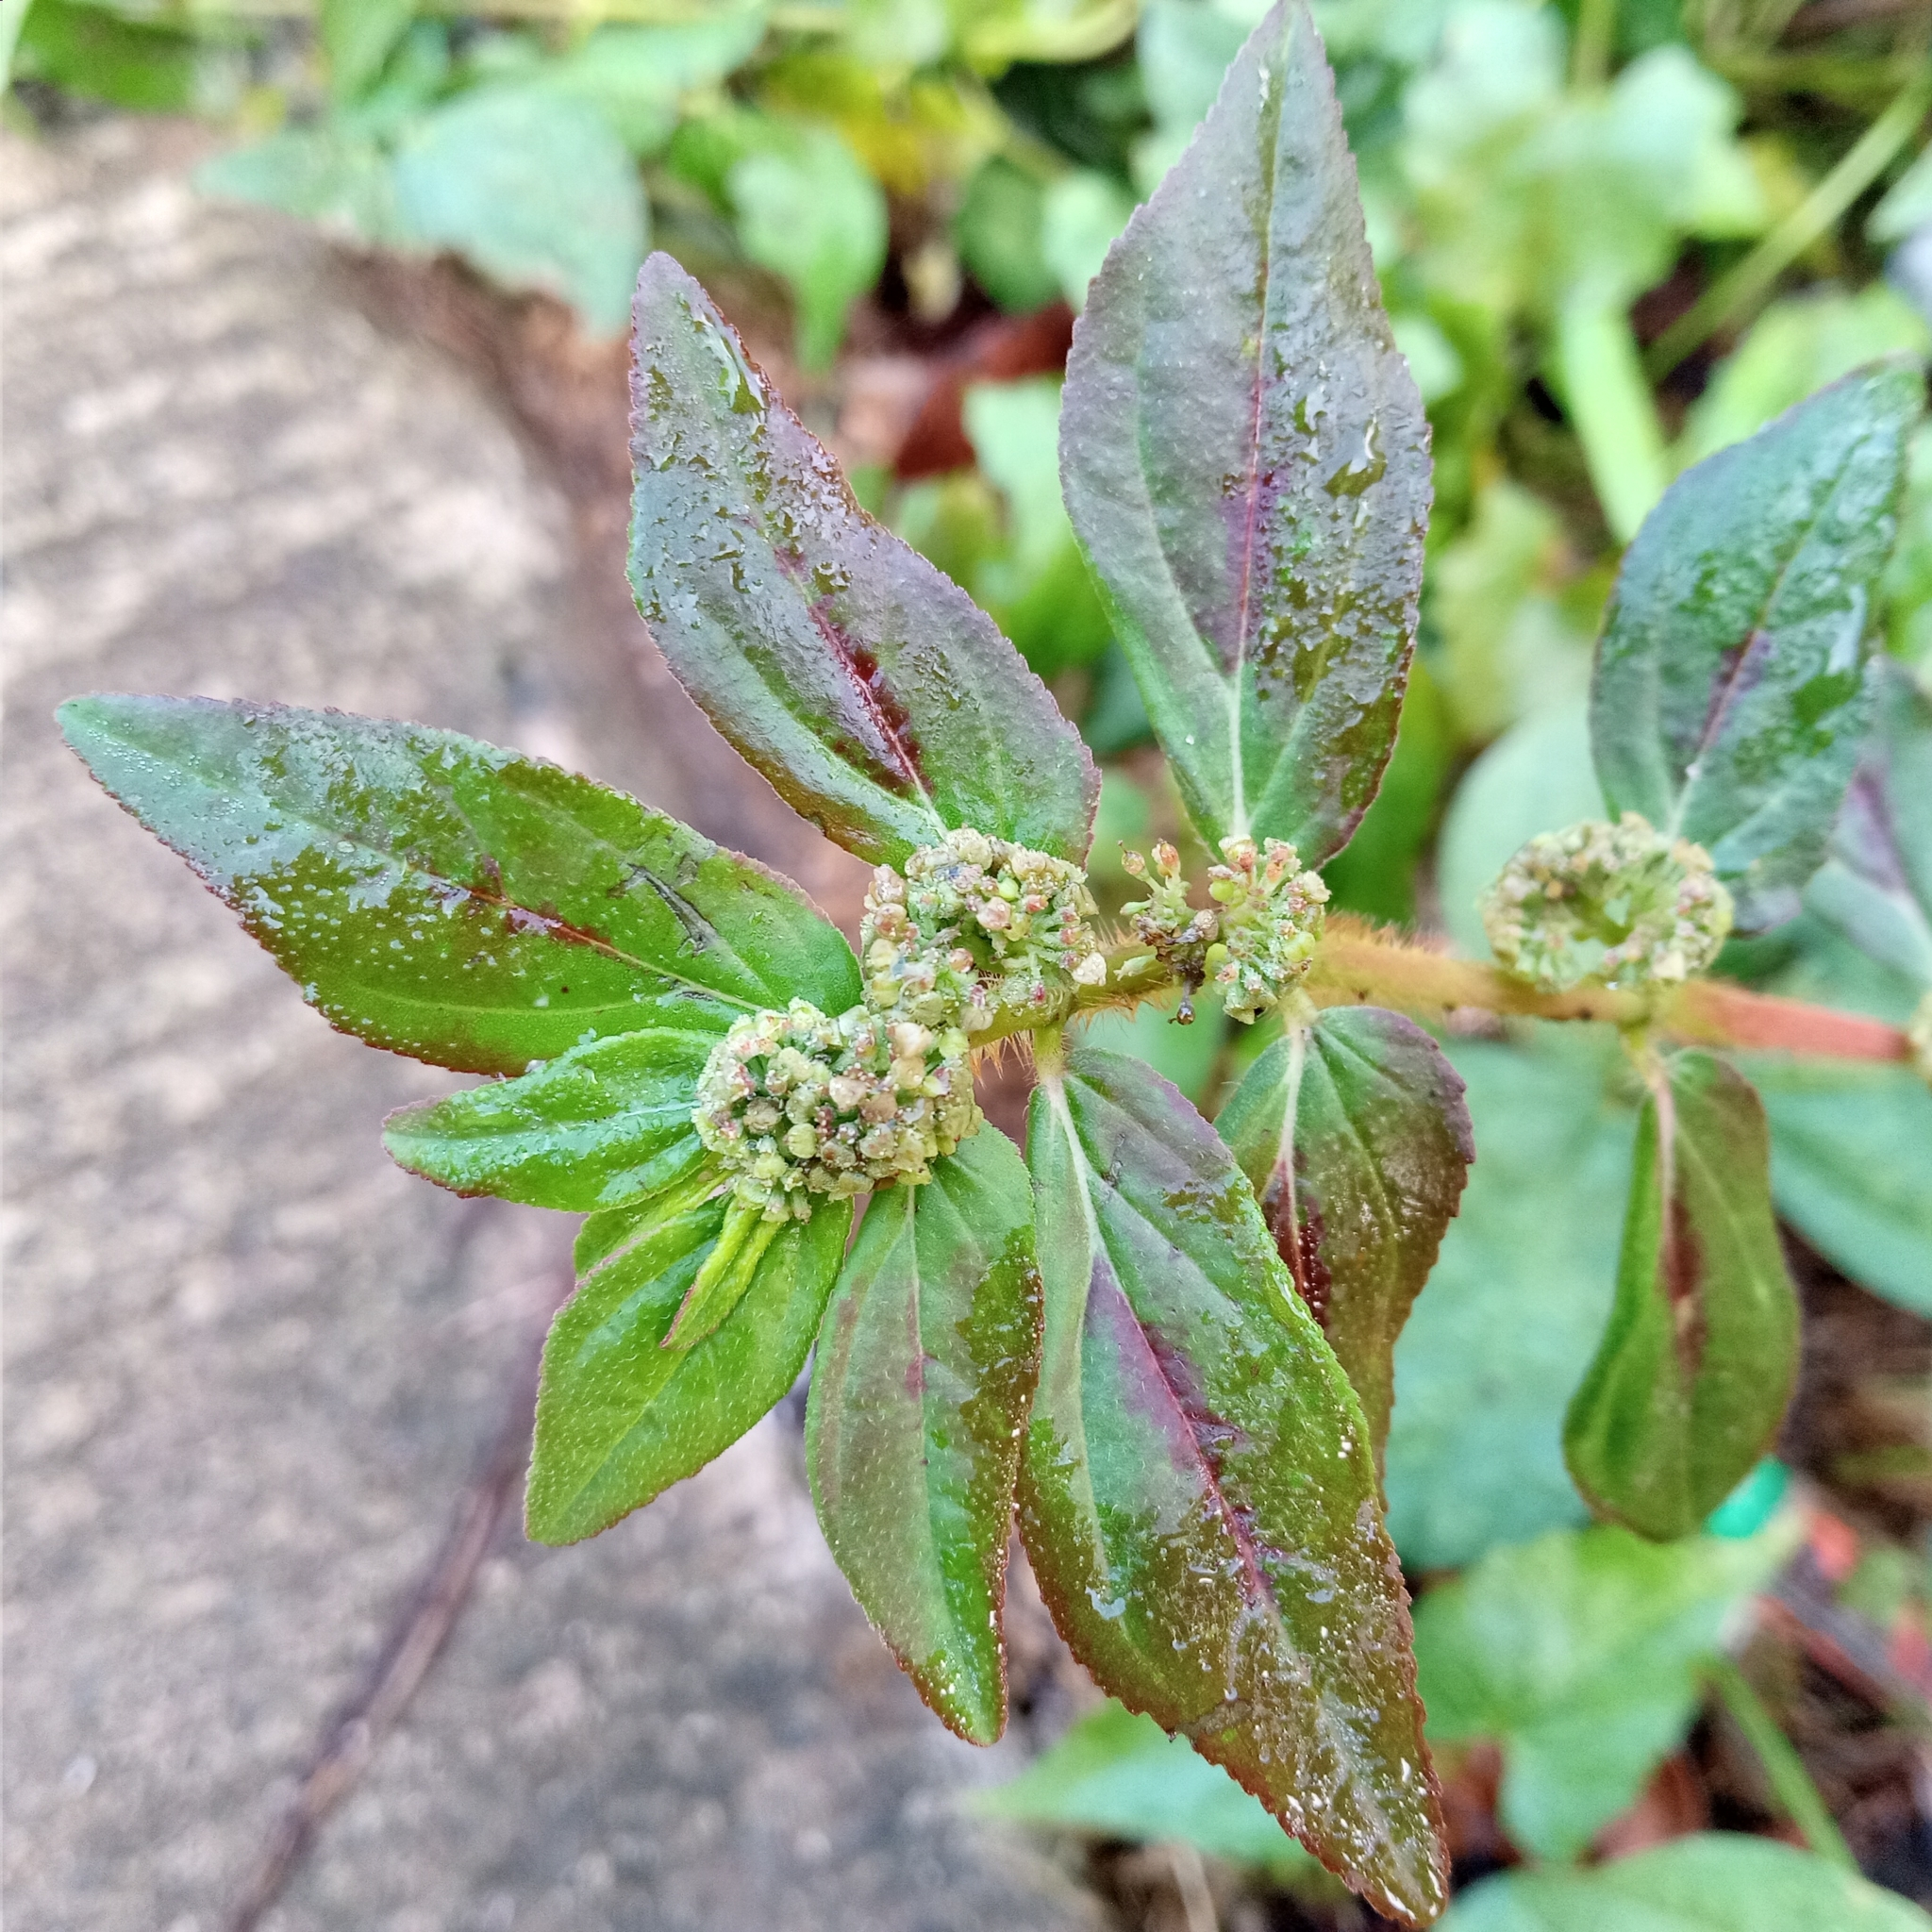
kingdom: Plantae
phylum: Tracheophyta
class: Magnoliopsida
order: Malpighiales
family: Euphorbiaceae
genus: Euphorbia
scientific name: Euphorbia hirta
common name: Pillpod sandmat
